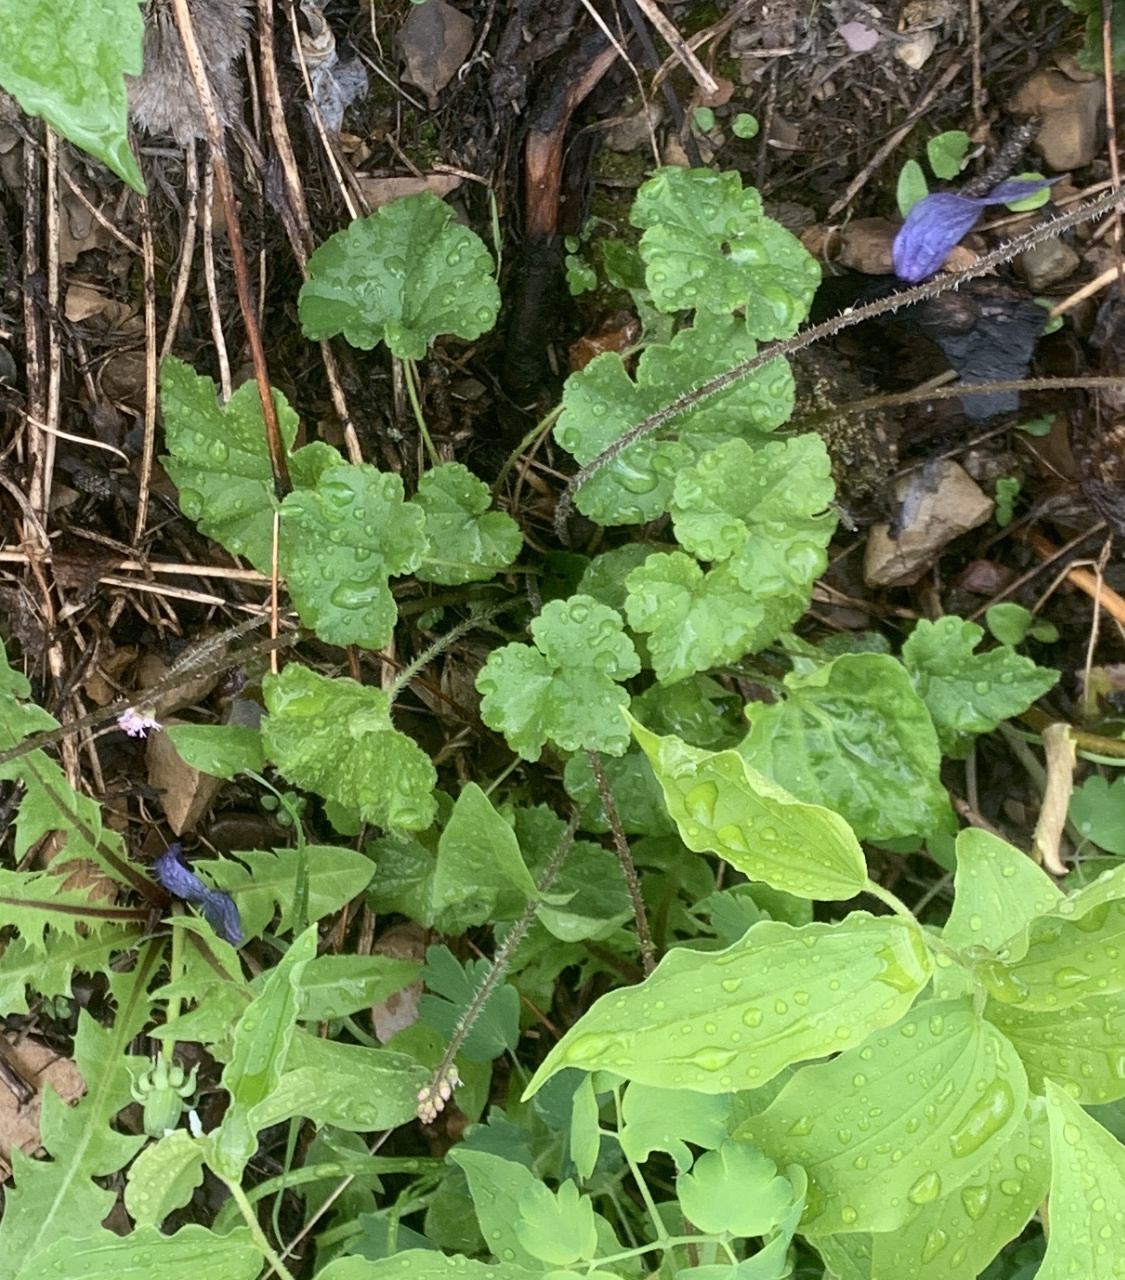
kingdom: Plantae
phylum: Tracheophyta
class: Magnoliopsida
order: Saxifragales
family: Saxifragaceae
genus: Ozomelis
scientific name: Ozomelis trifida
